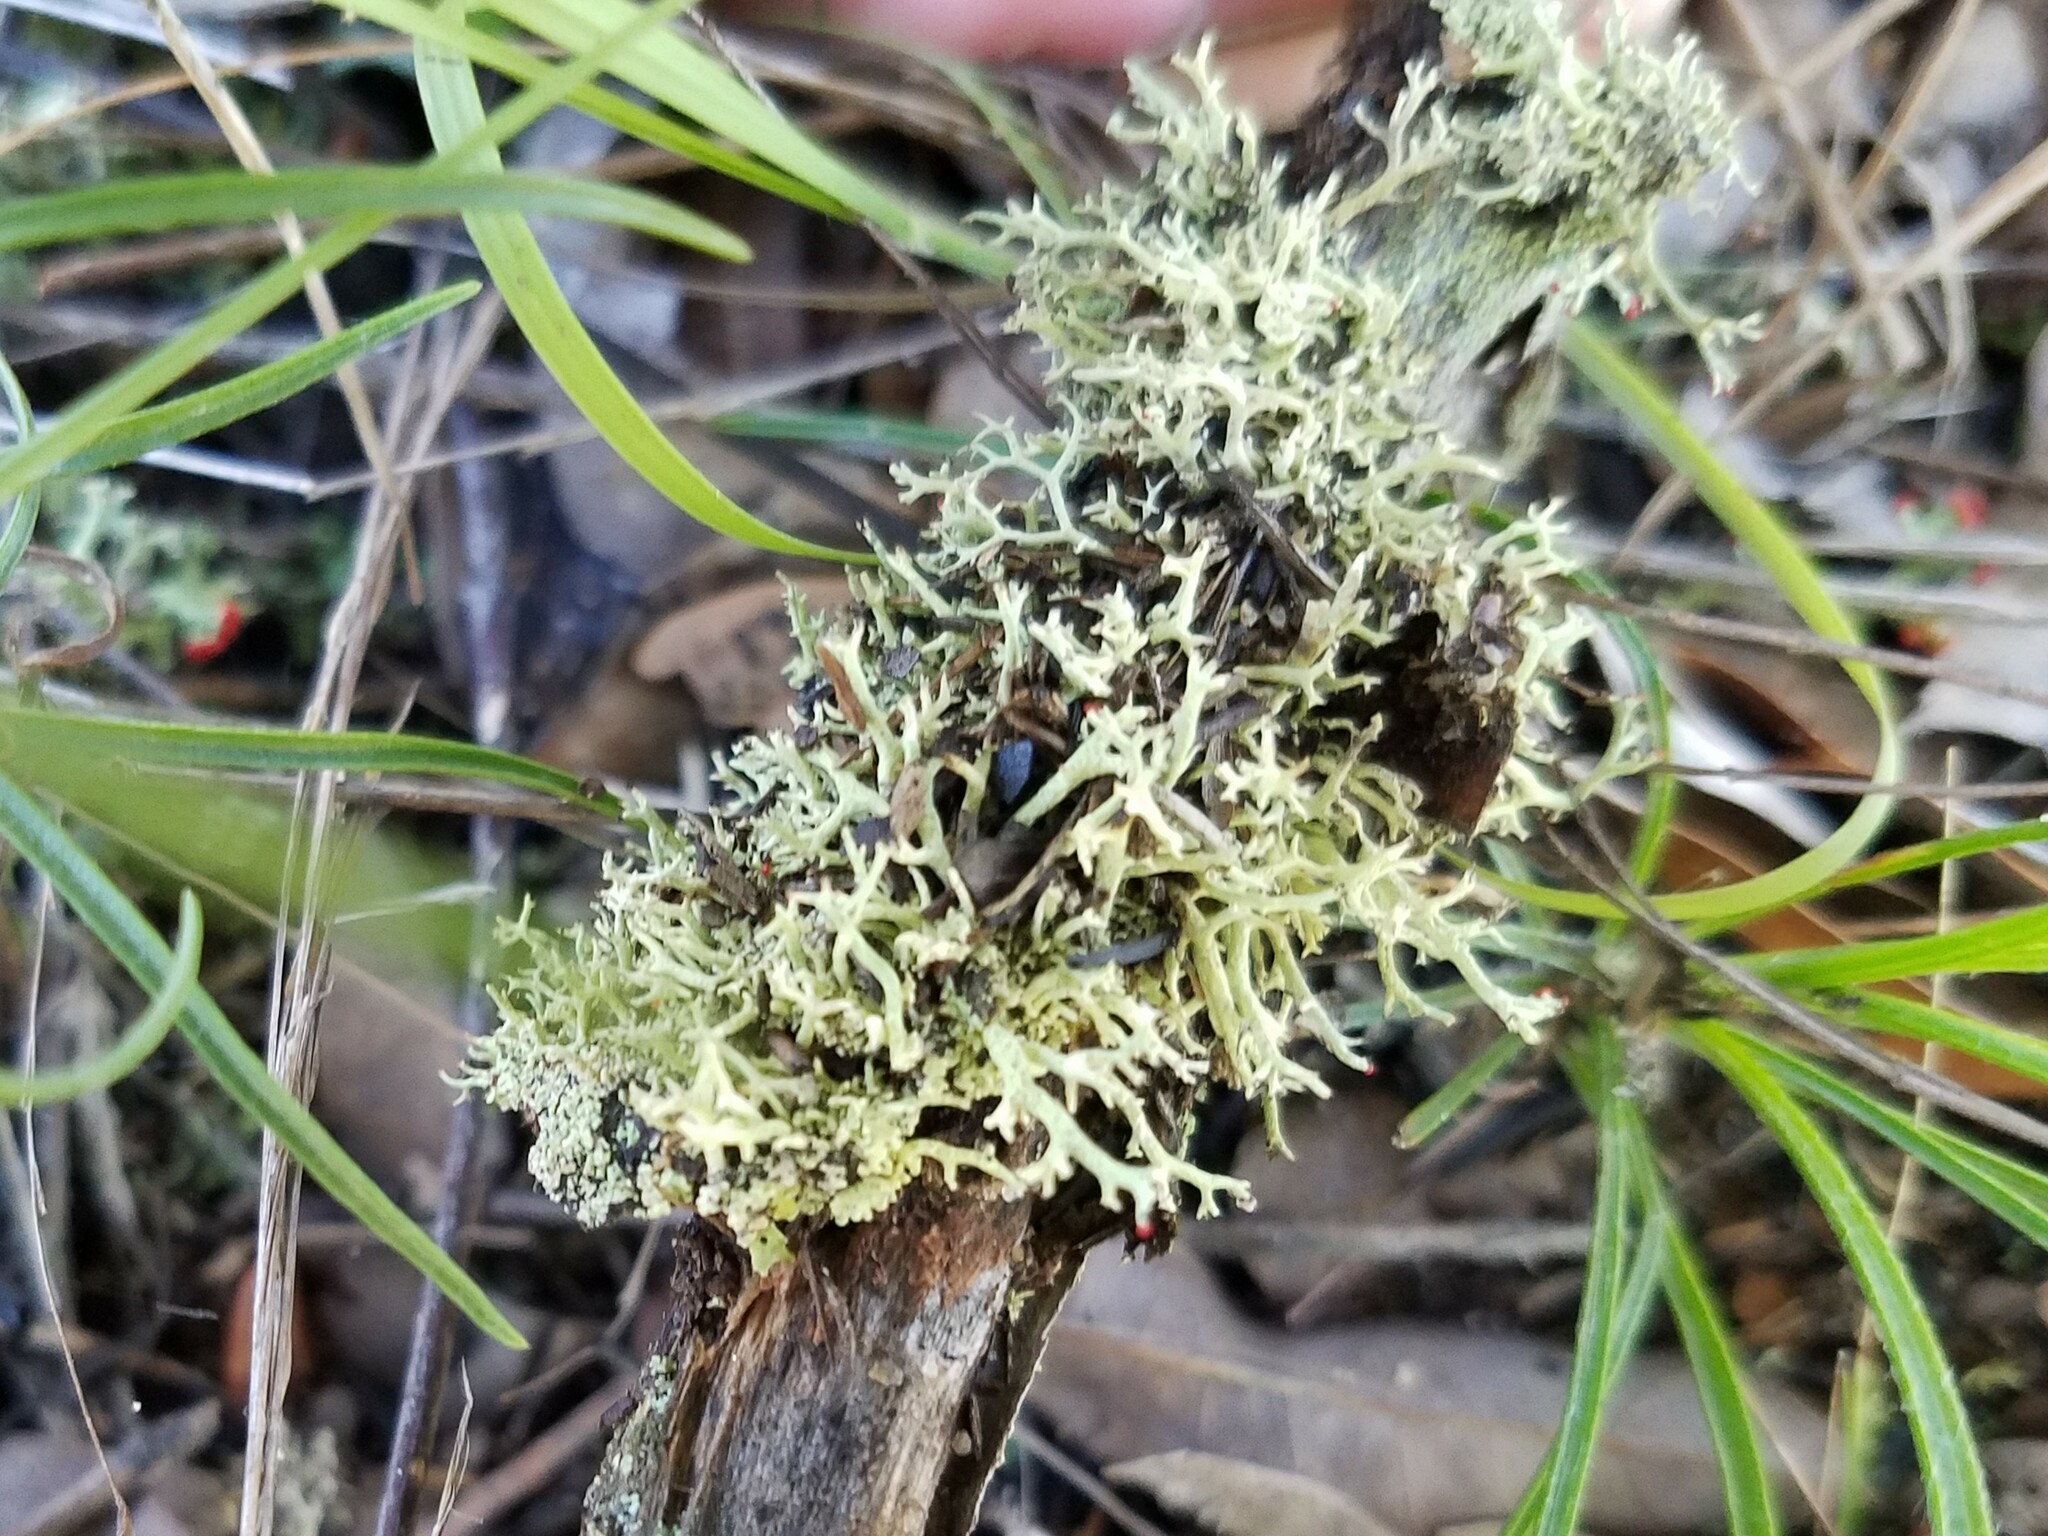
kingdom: Fungi
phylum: Ascomycota
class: Lecanoromycetes
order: Lecanorales
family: Cladoniaceae
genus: Cladonia
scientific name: Cladonia leporina
